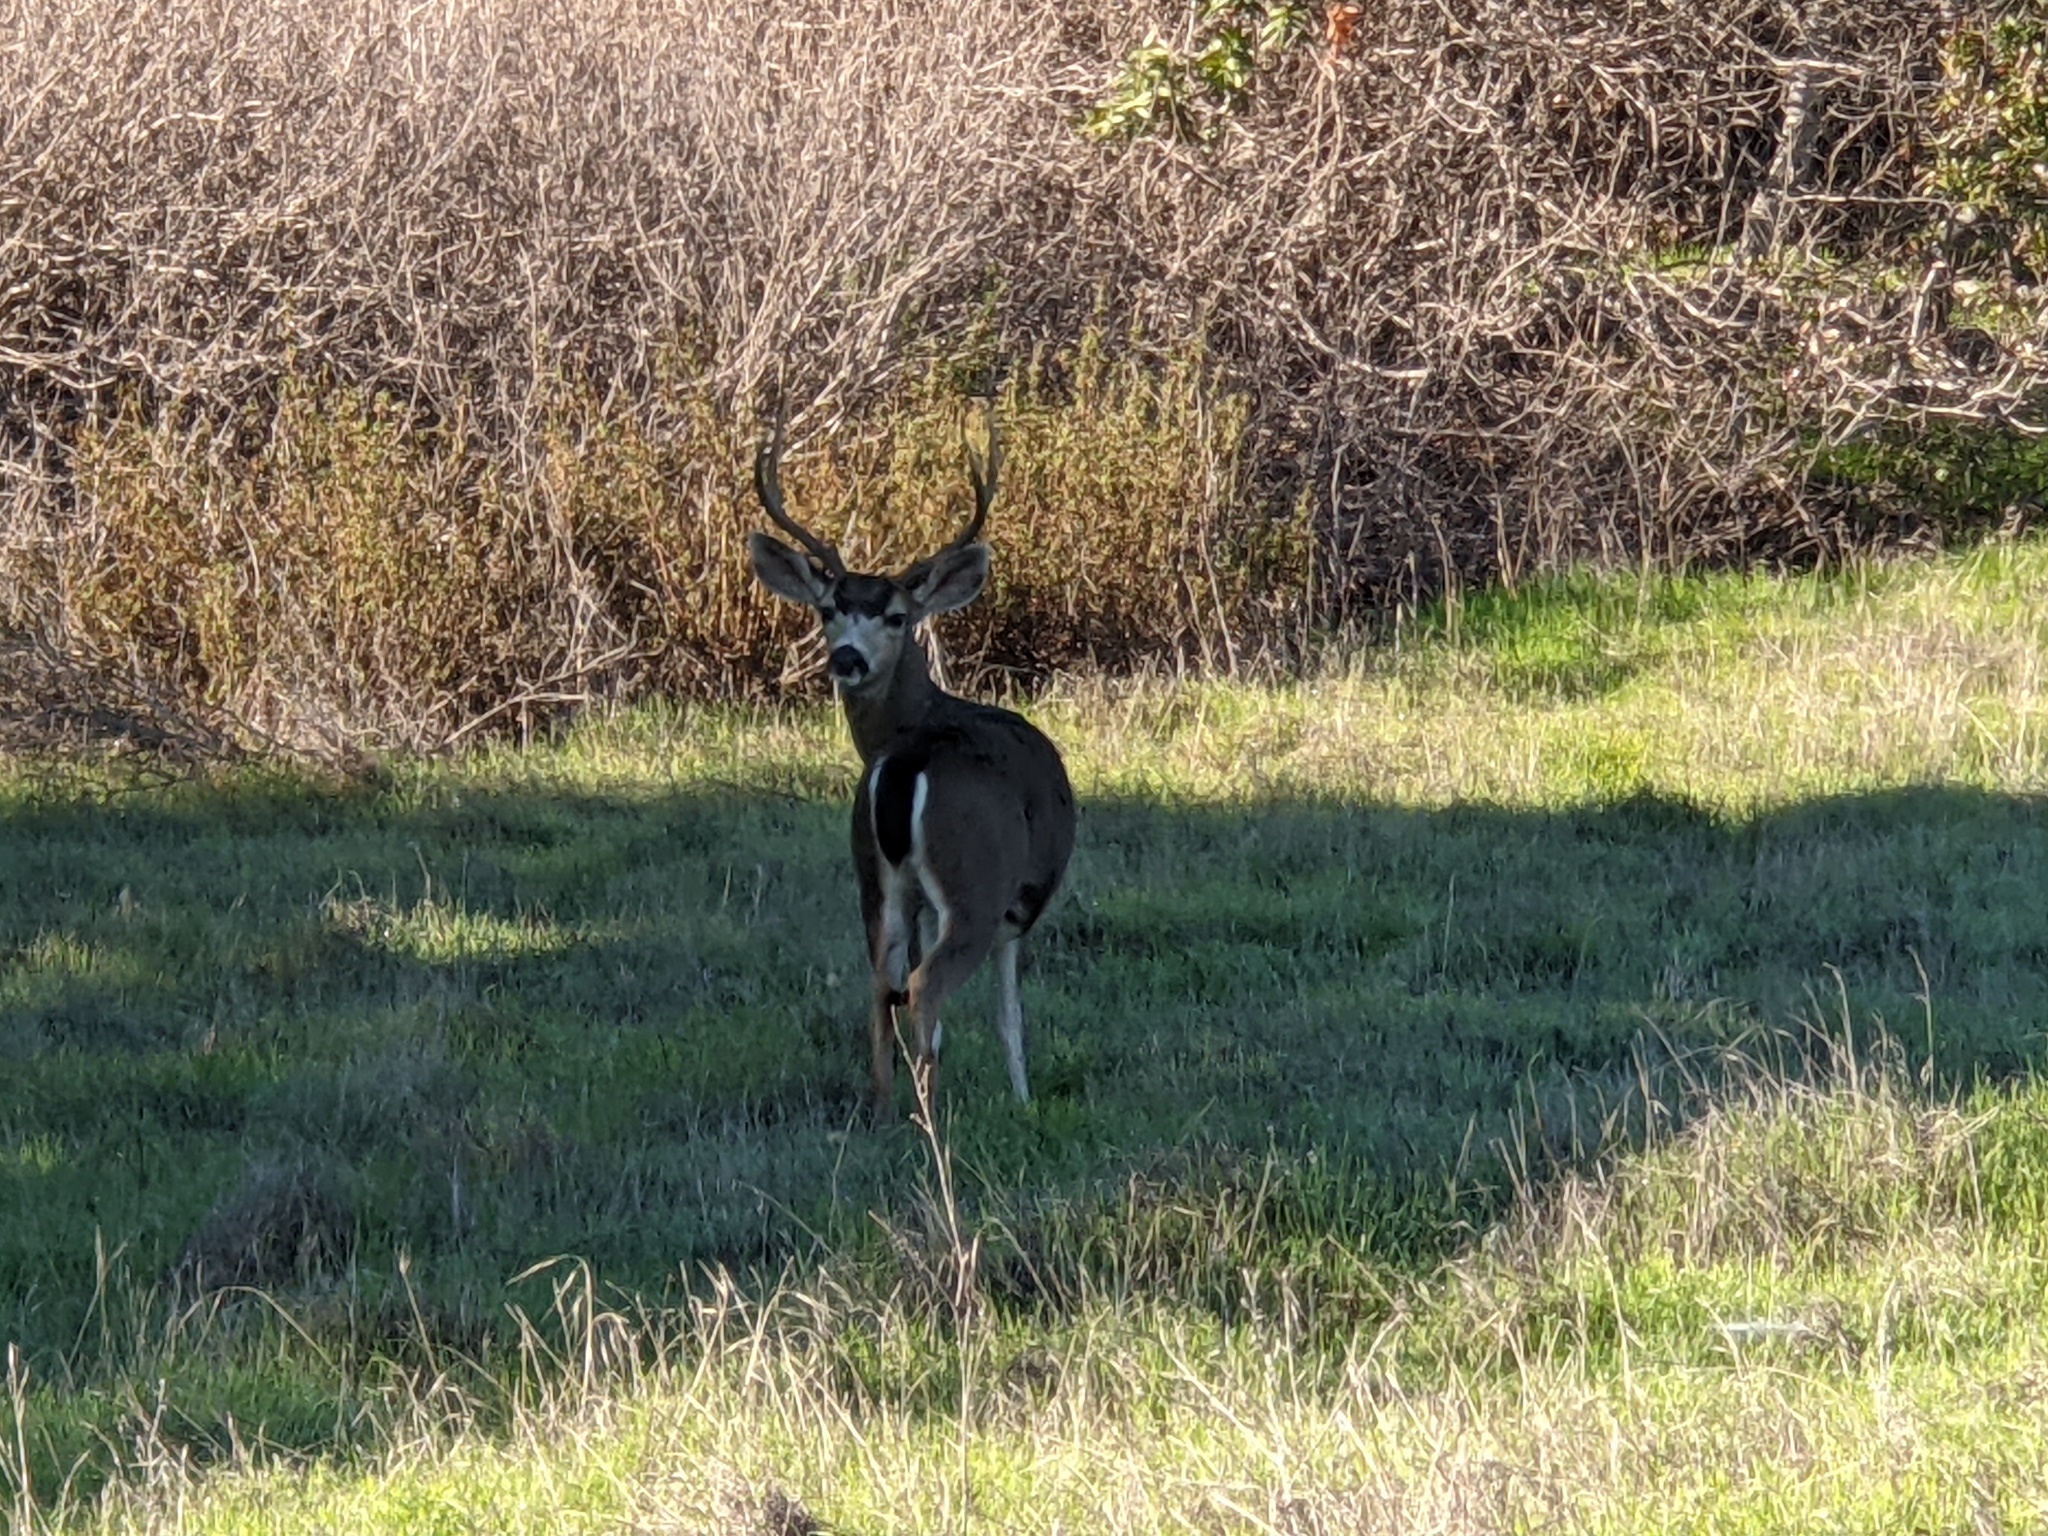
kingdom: Animalia
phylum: Chordata
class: Mammalia
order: Artiodactyla
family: Cervidae
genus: Odocoileus
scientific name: Odocoileus hemionus
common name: Mule deer
